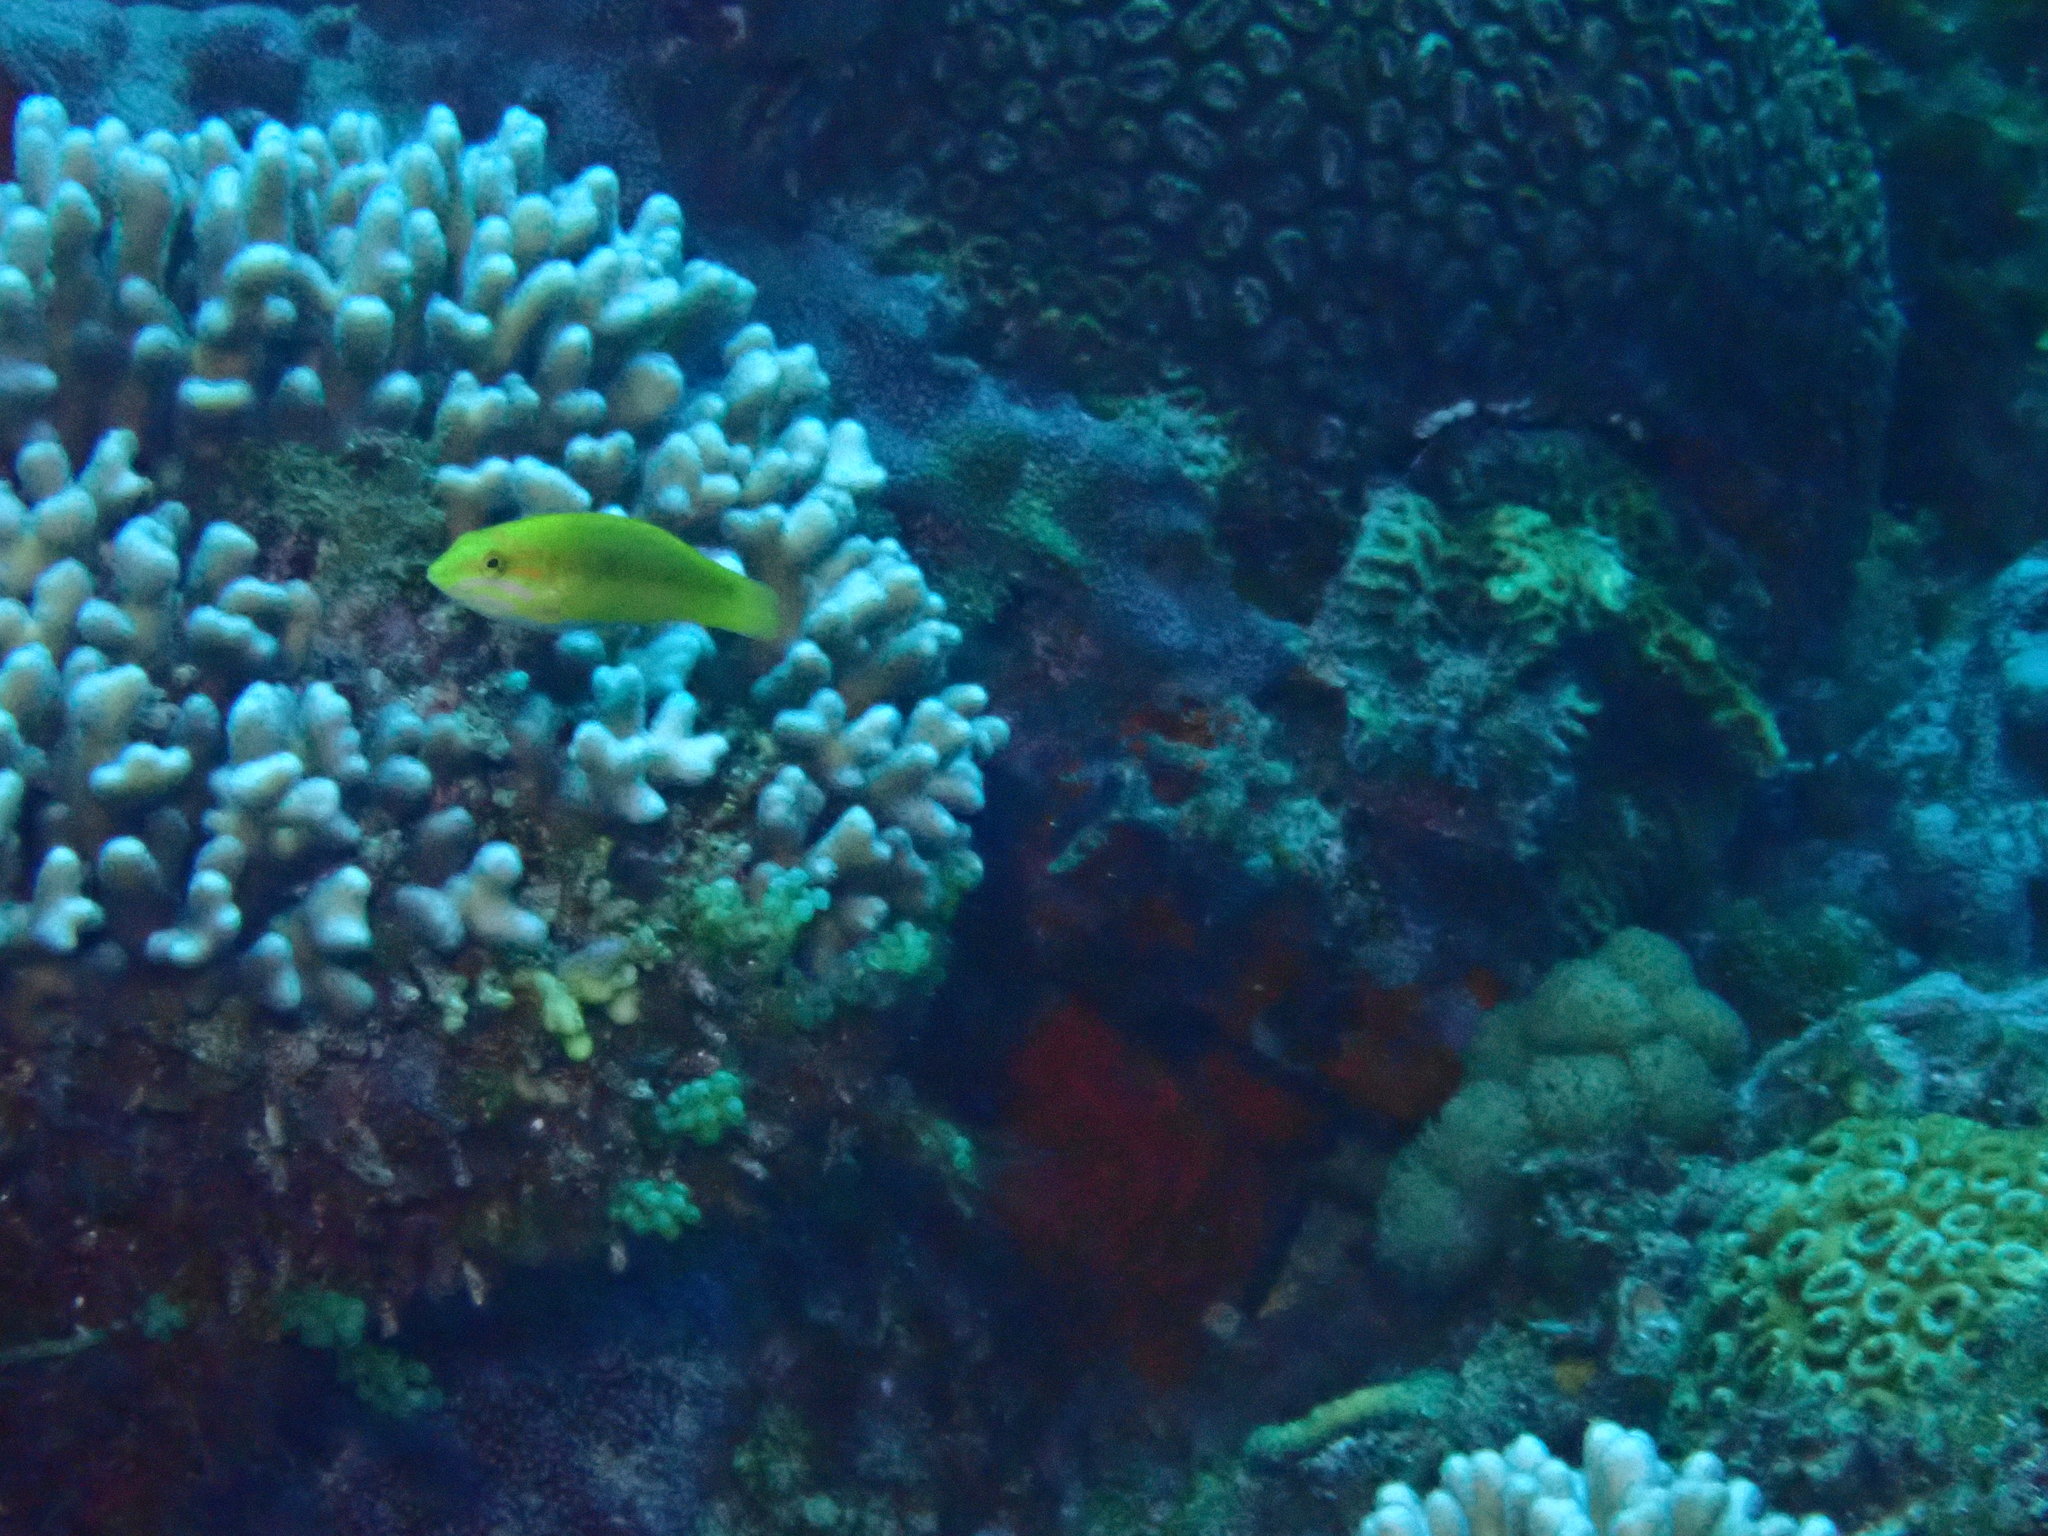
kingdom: Animalia
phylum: Chordata
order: Perciformes
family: Labridae
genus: Thalassoma
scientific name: Thalassoma lutescens
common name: Green moon wrasse
